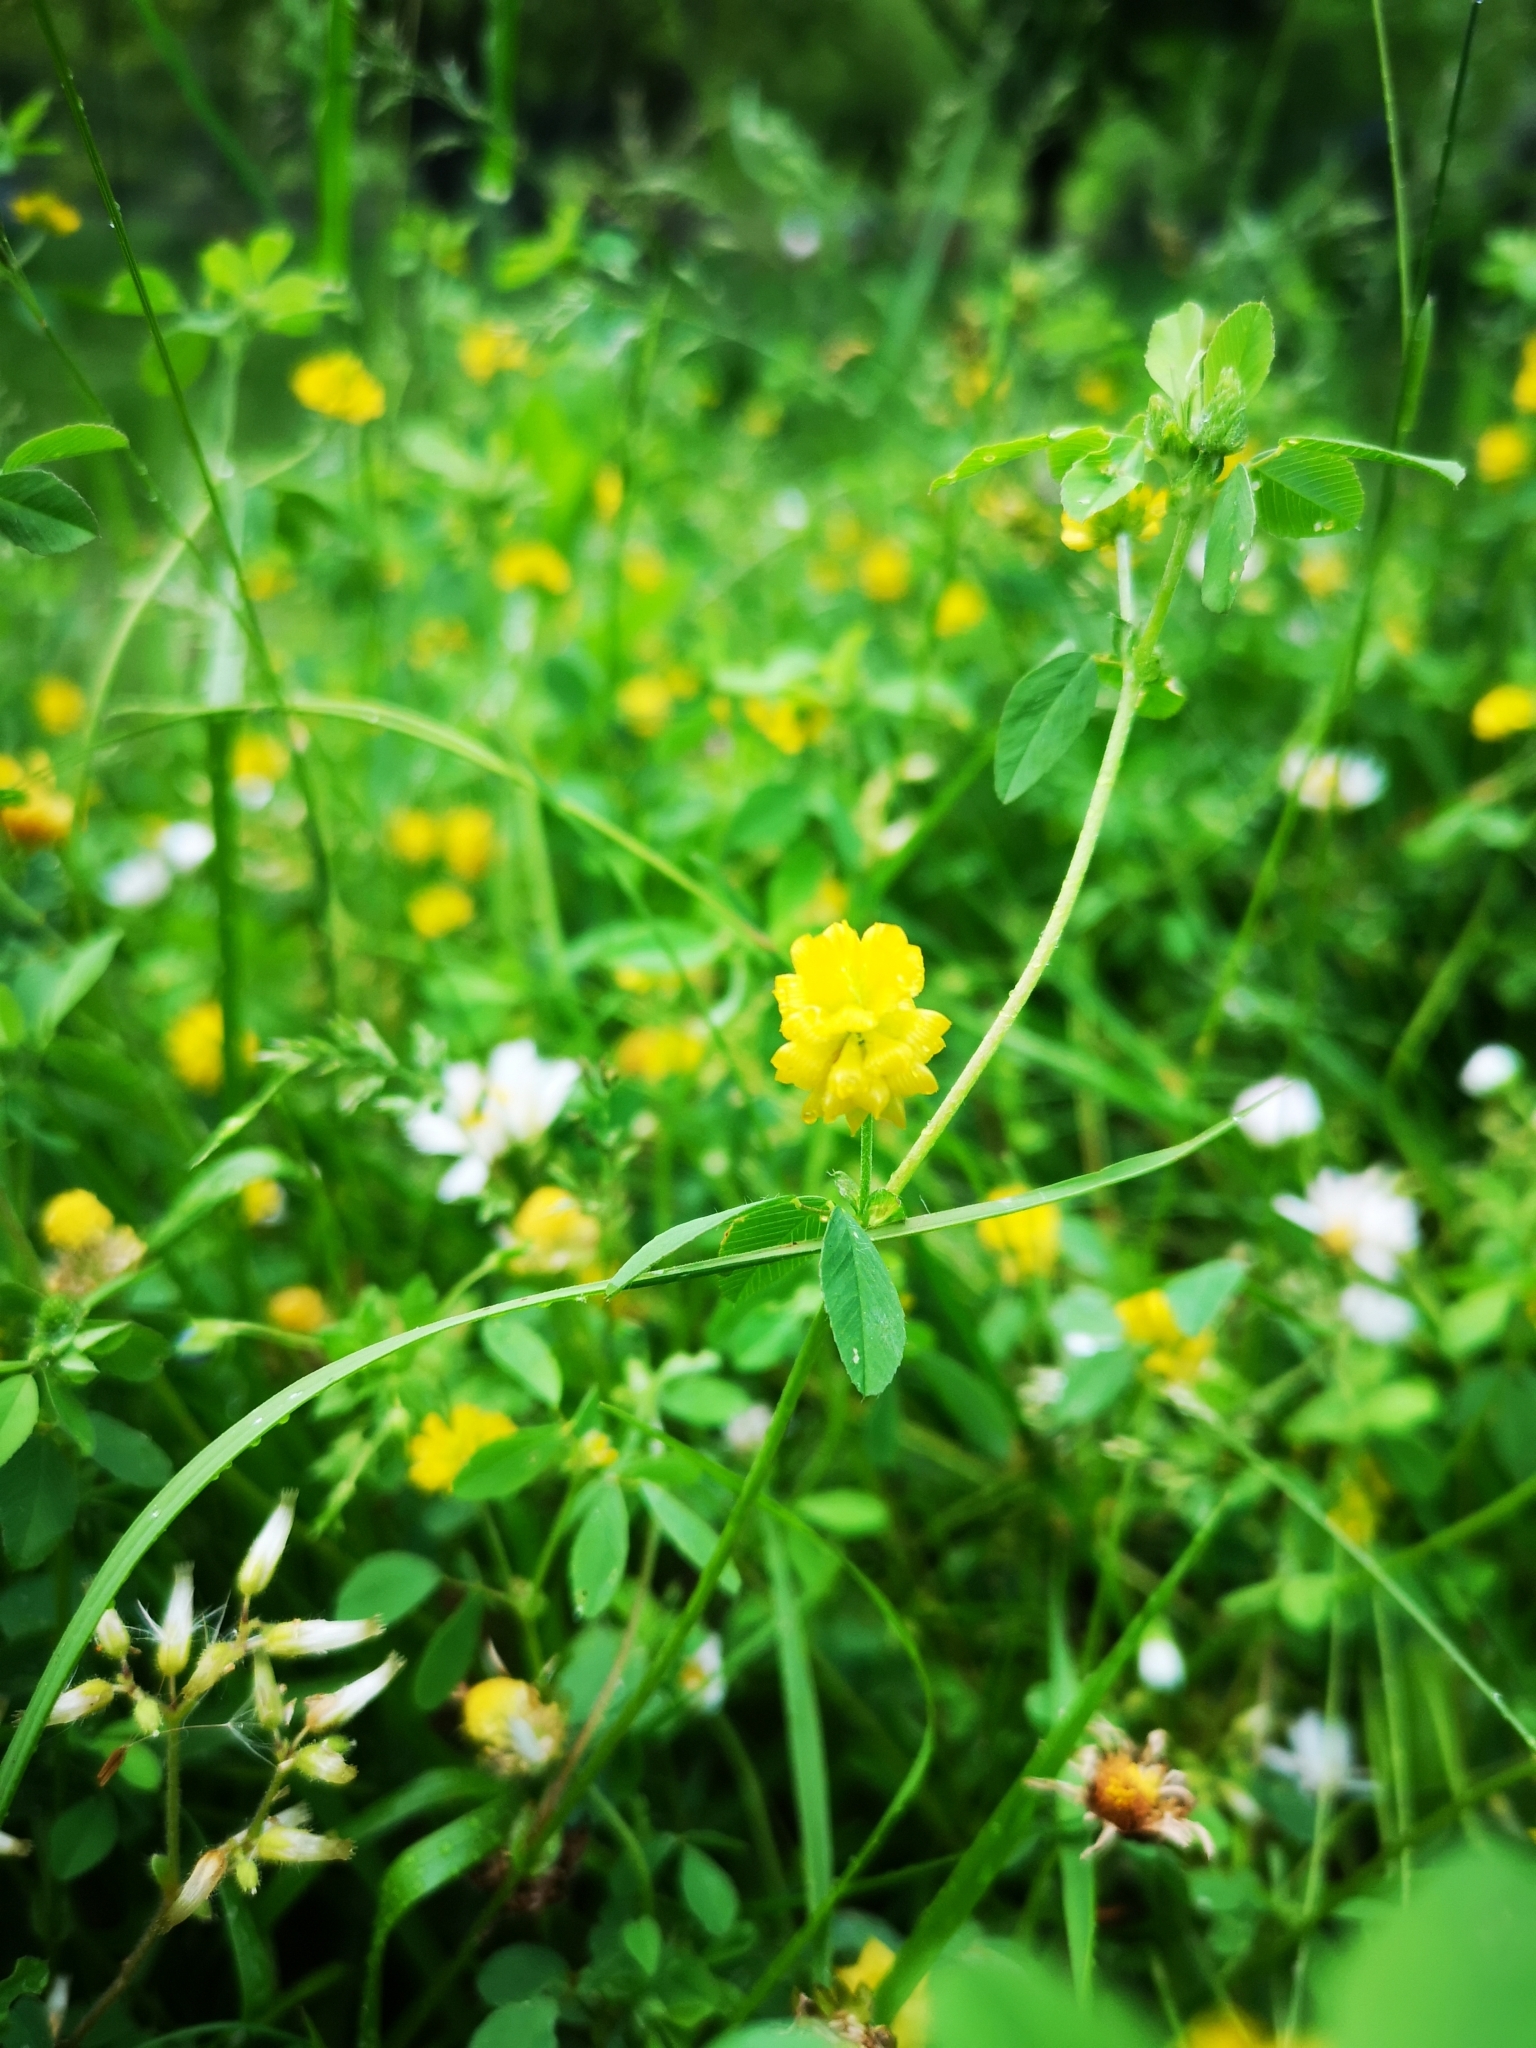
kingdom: Plantae
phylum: Tracheophyta
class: Magnoliopsida
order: Fabales
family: Fabaceae
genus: Trifolium
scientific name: Trifolium campestre
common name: Field clover
